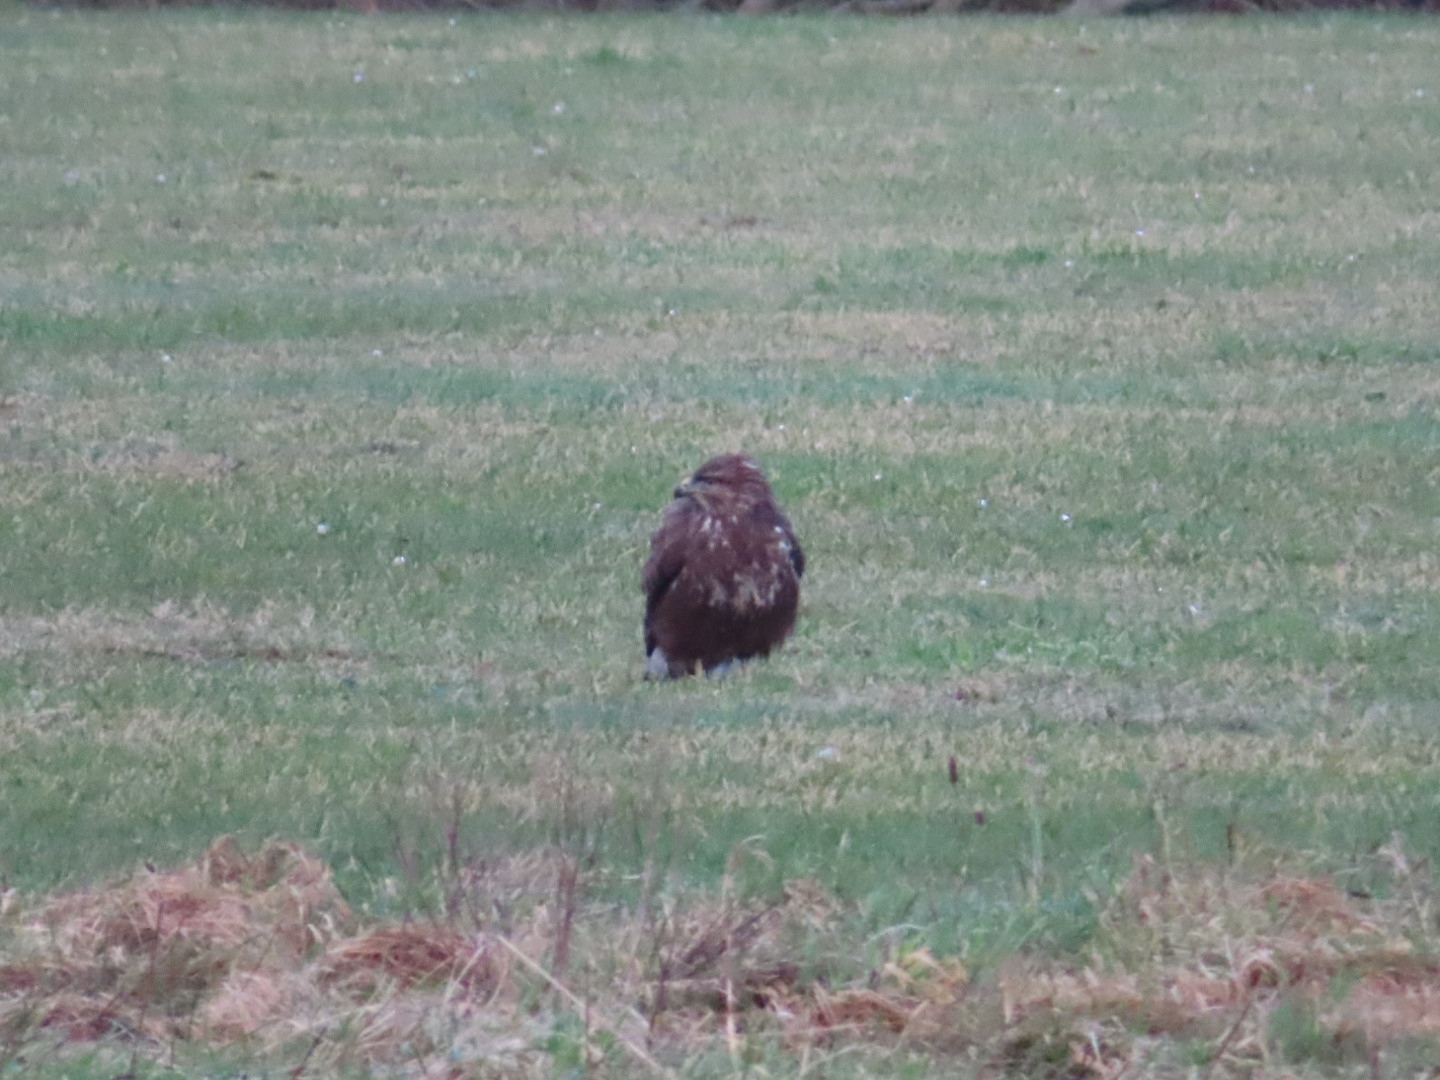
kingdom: Animalia
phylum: Chordata
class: Aves
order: Accipitriformes
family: Accipitridae
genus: Buteo
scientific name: Buteo buteo
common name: Common buzzard
